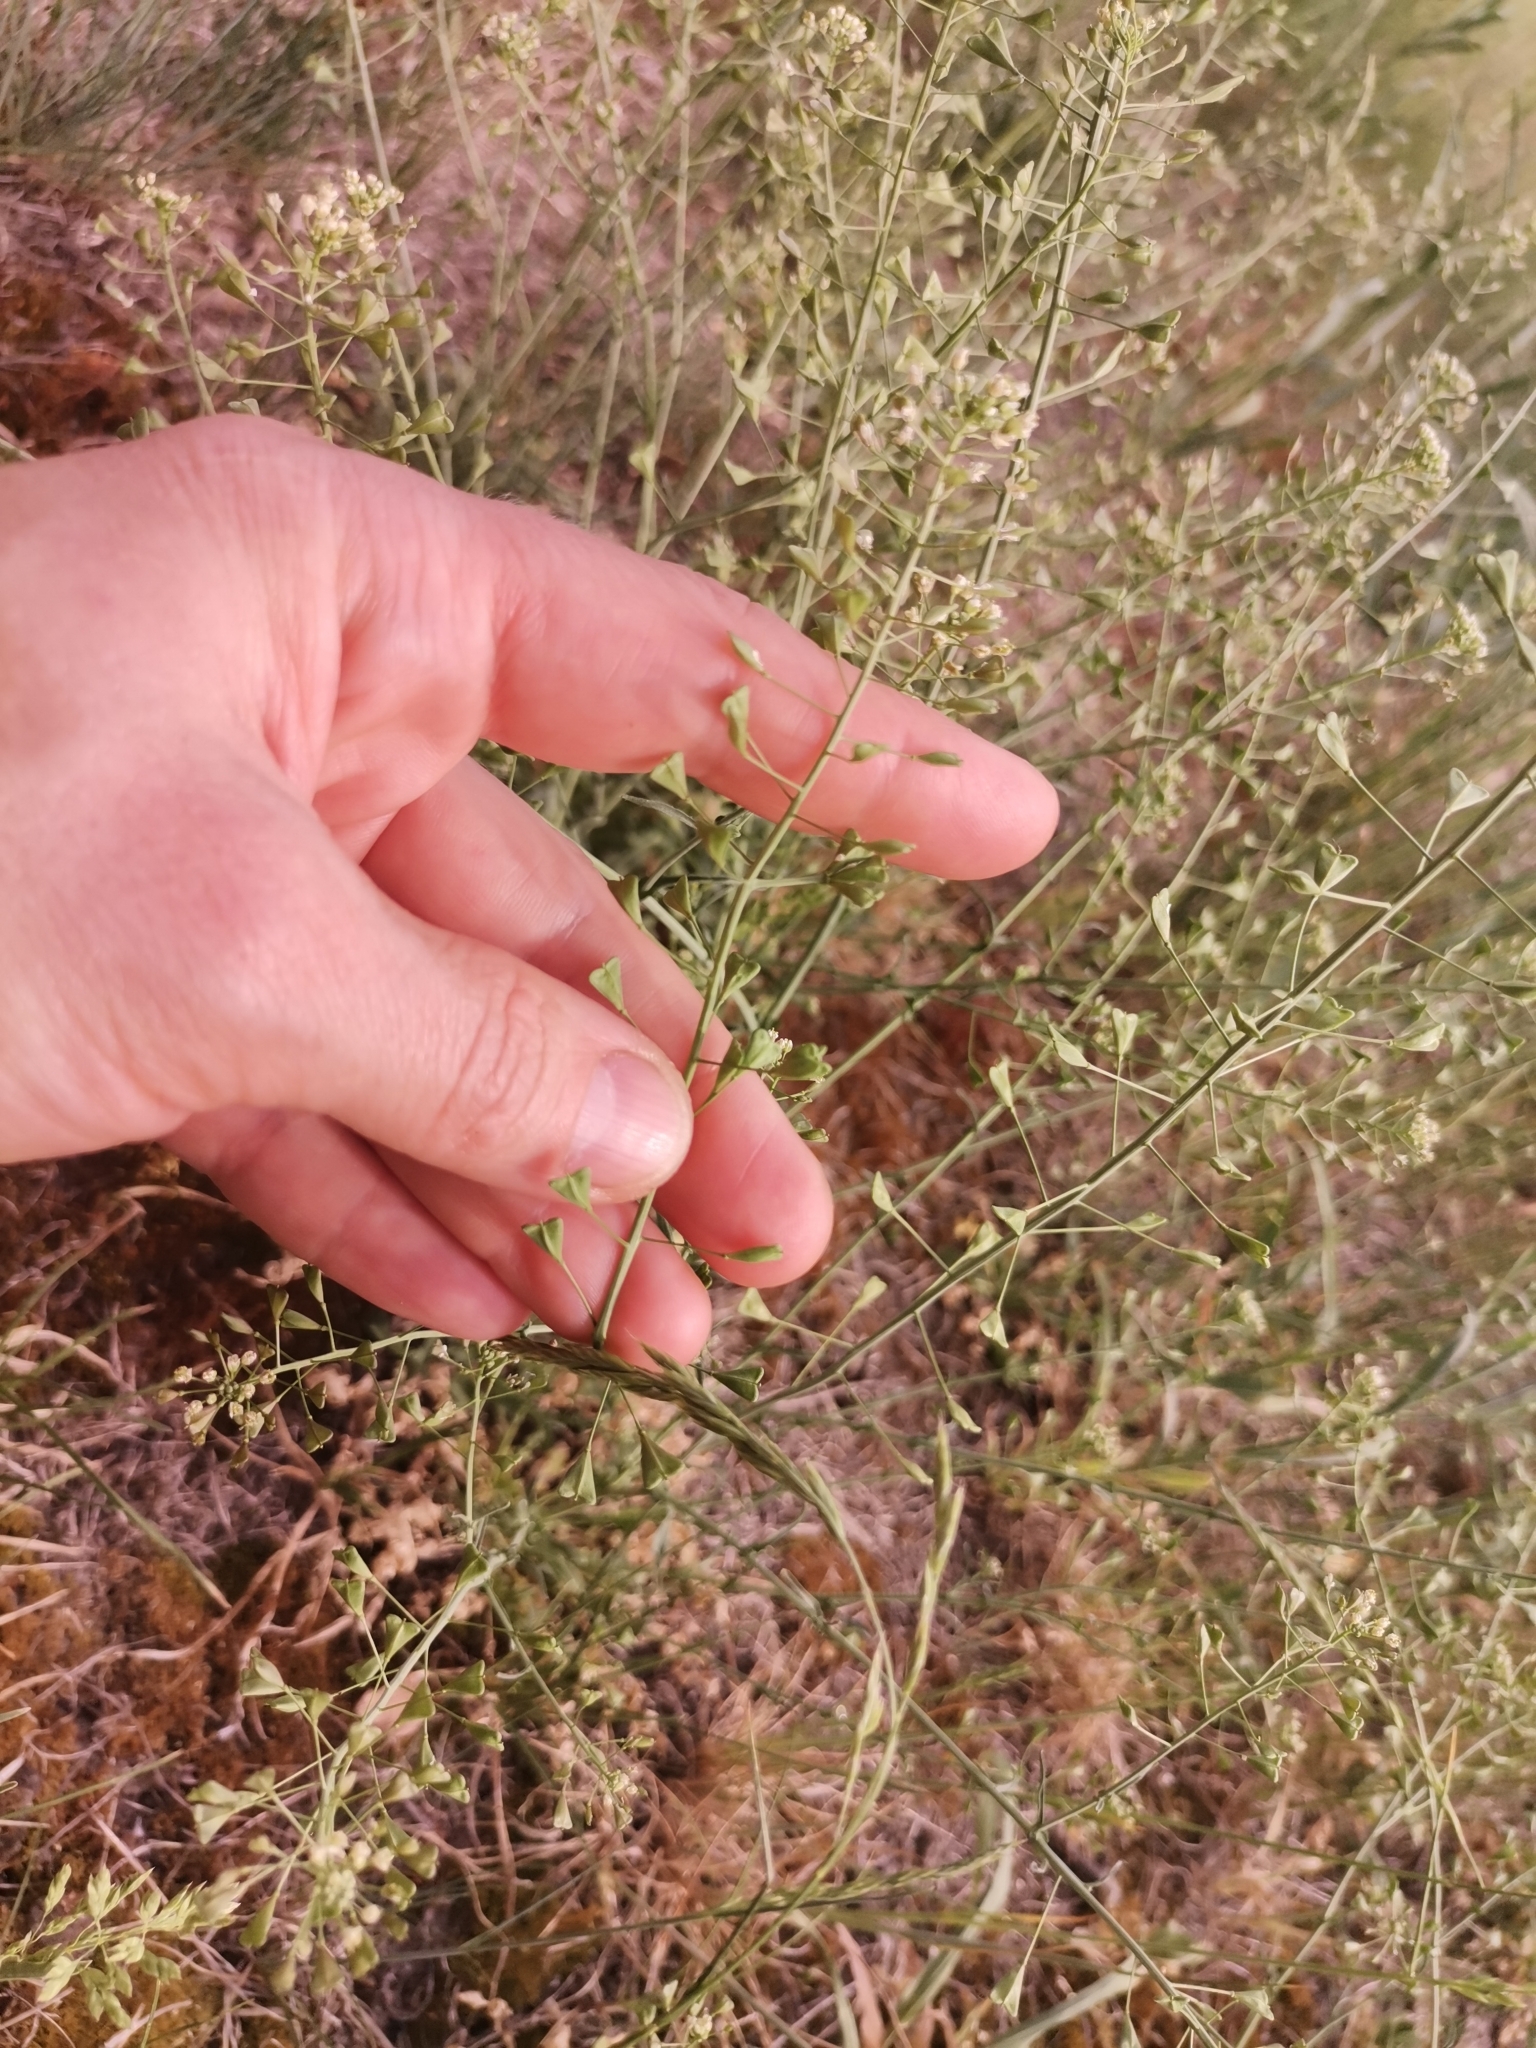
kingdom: Plantae
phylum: Tracheophyta
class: Magnoliopsida
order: Brassicales
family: Brassicaceae
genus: Capsella
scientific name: Capsella bursa-pastoris
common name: Shepherd's purse
